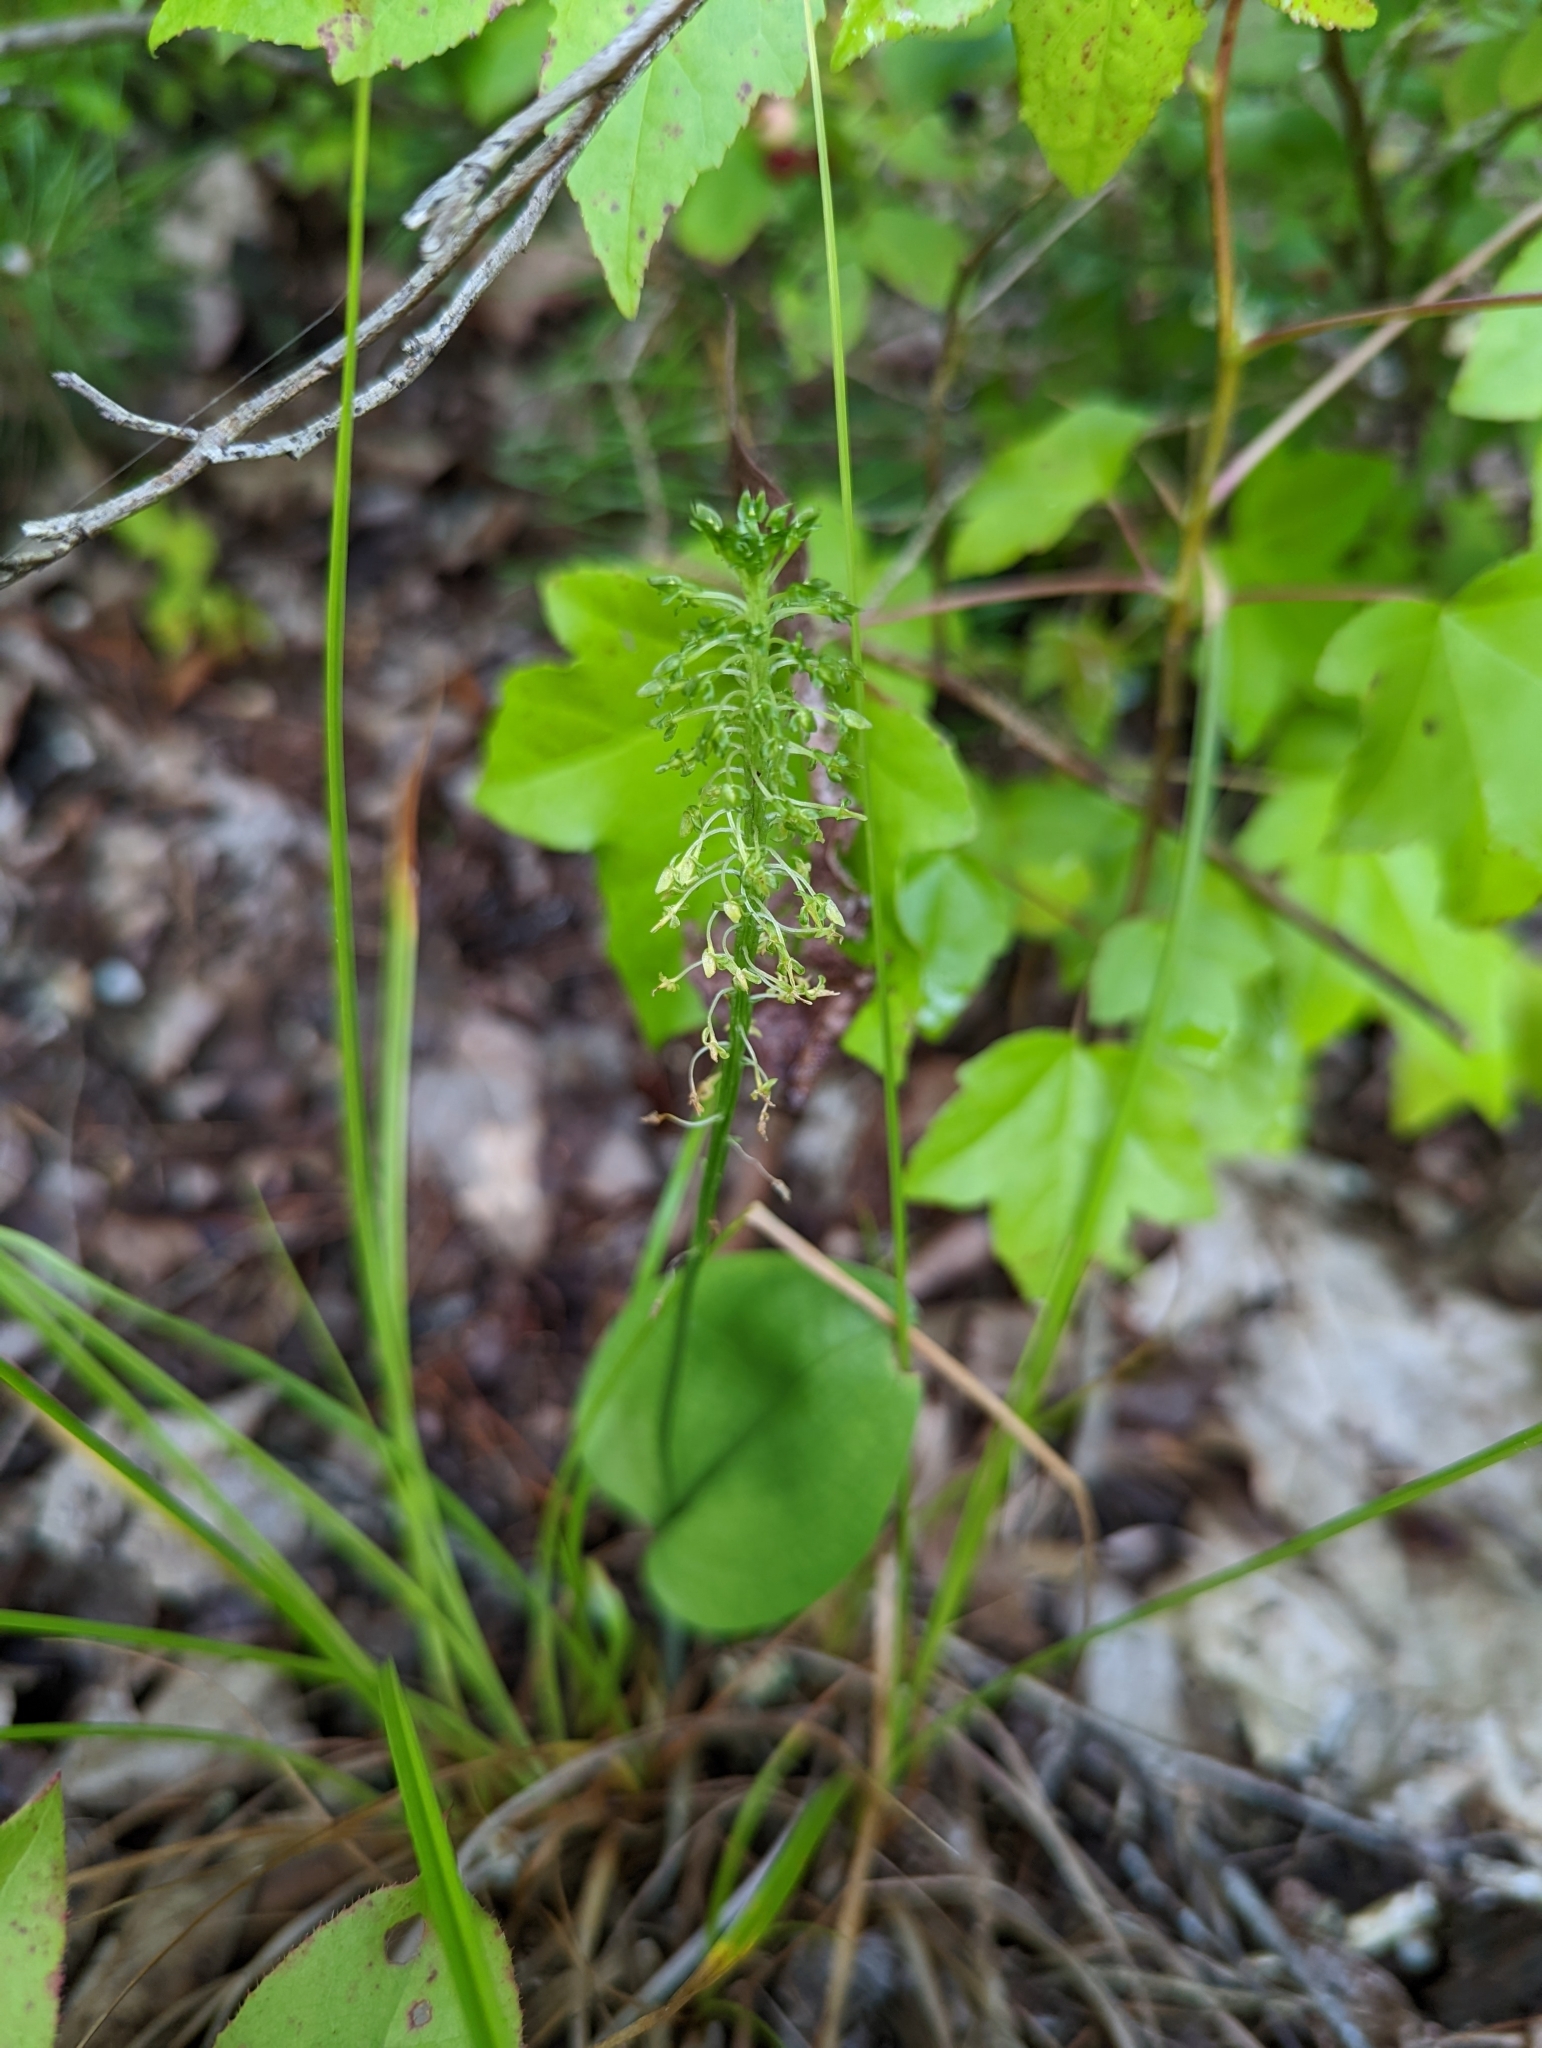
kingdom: Plantae
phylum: Tracheophyta
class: Liliopsida
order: Asparagales
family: Orchidaceae
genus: Malaxis
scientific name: Malaxis unifolia
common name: Green adder's-mouth
